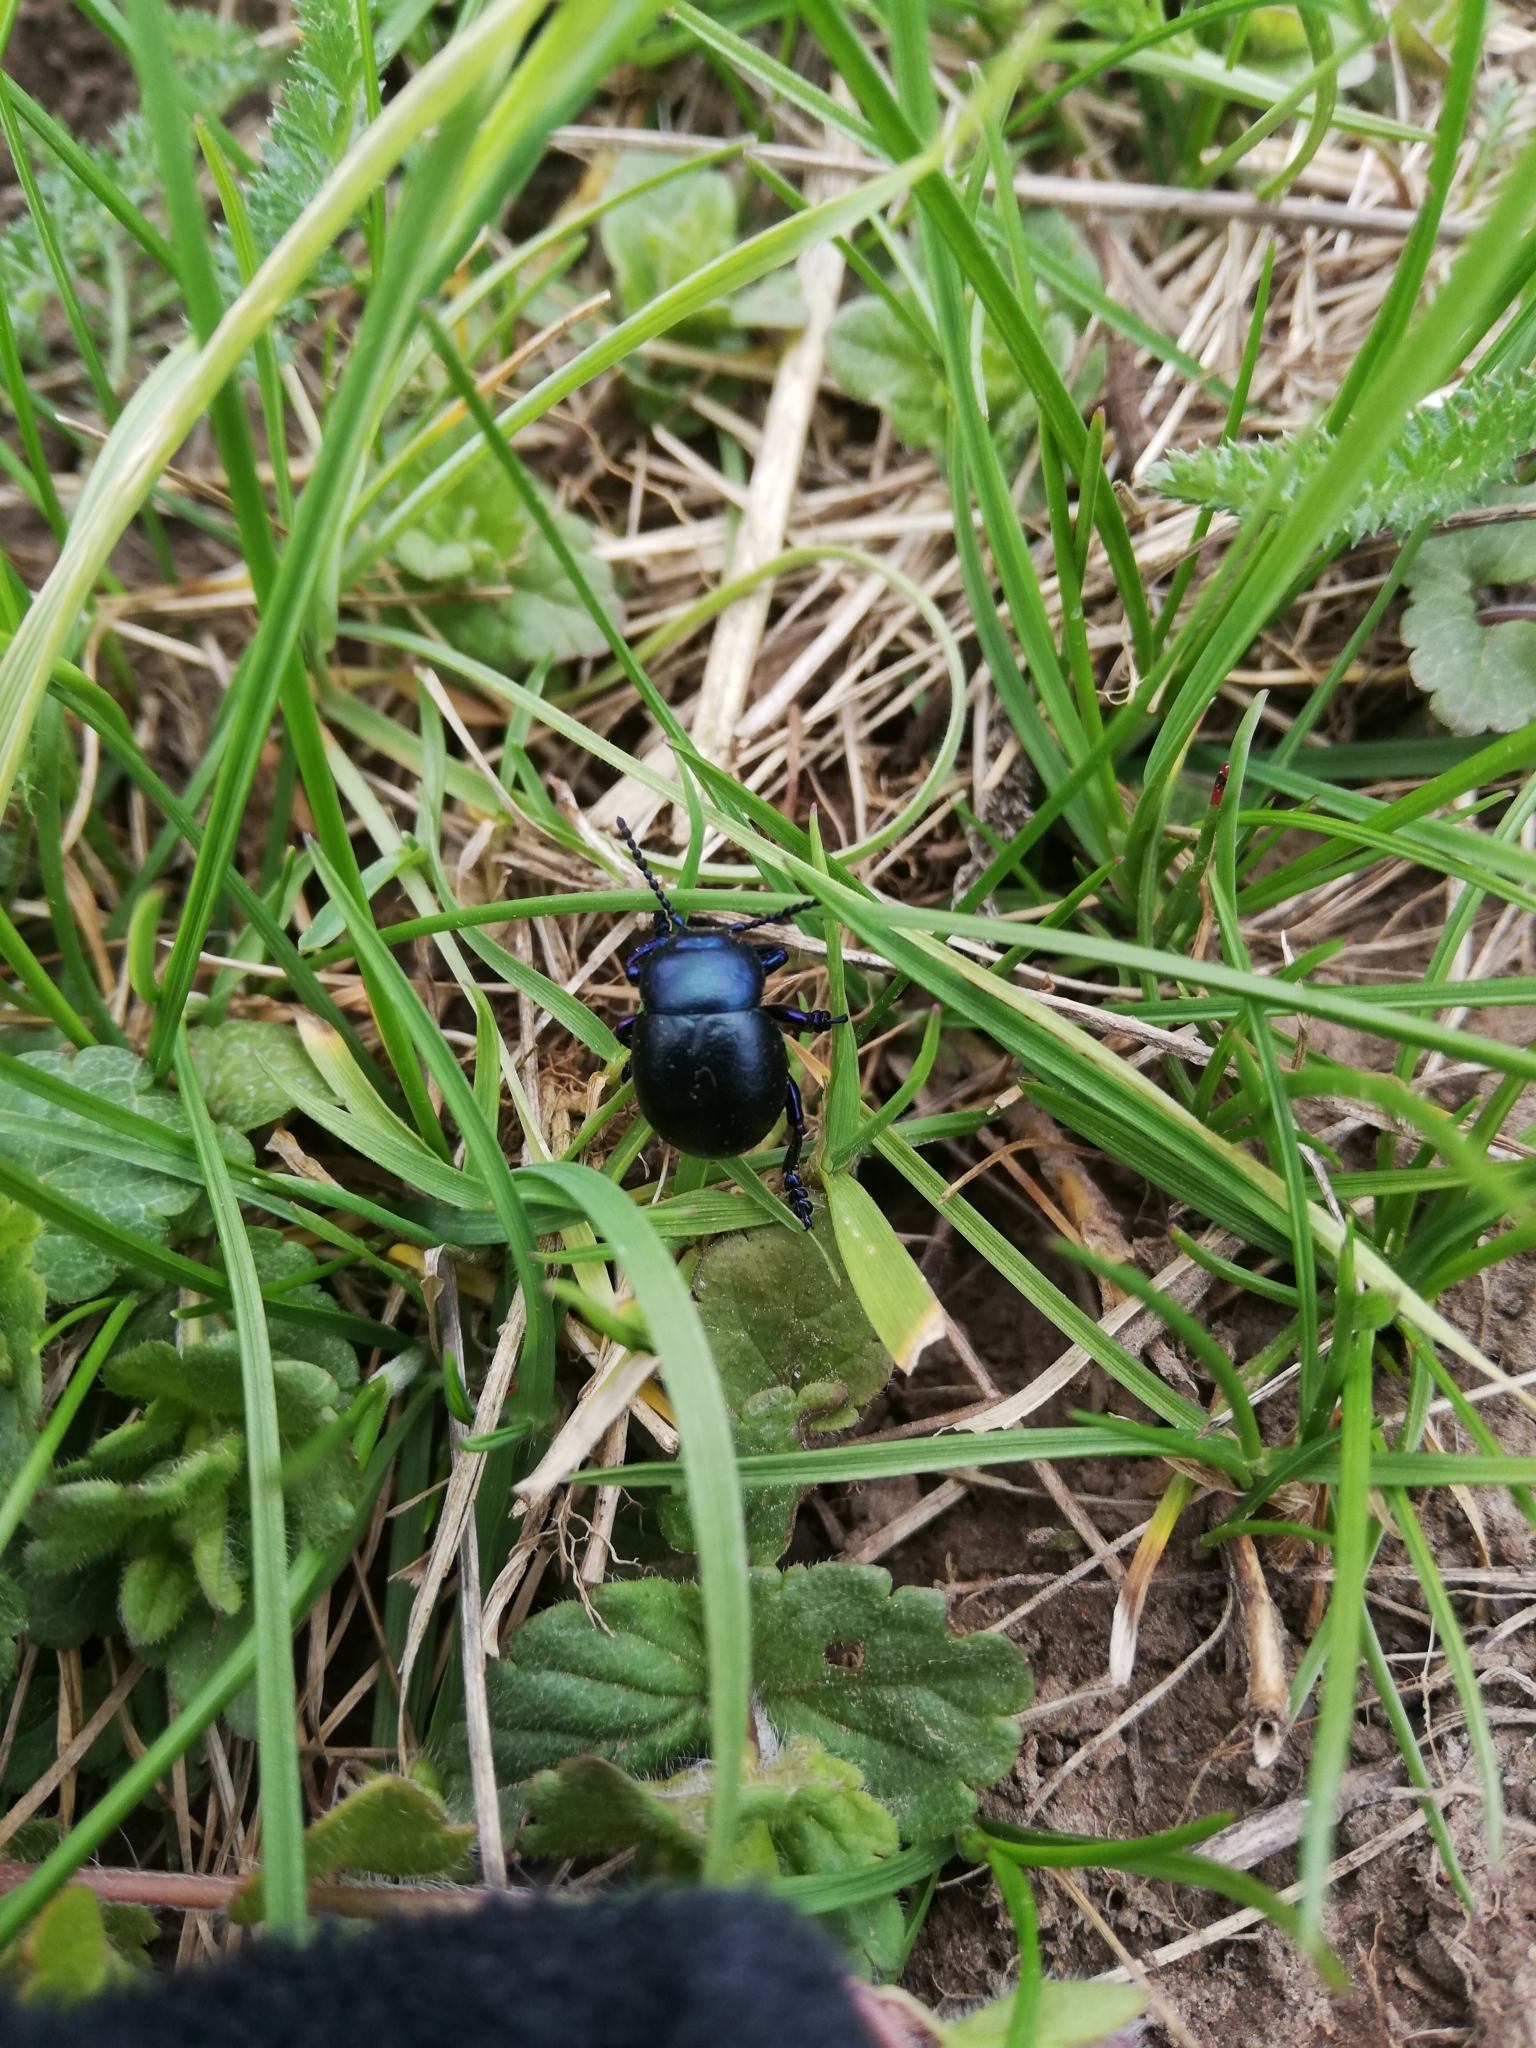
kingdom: Animalia
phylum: Arthropoda
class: Insecta
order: Coleoptera
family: Chrysomelidae
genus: Timarcha
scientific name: Timarcha goettingensis
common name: Small bloody-nosed beetle
